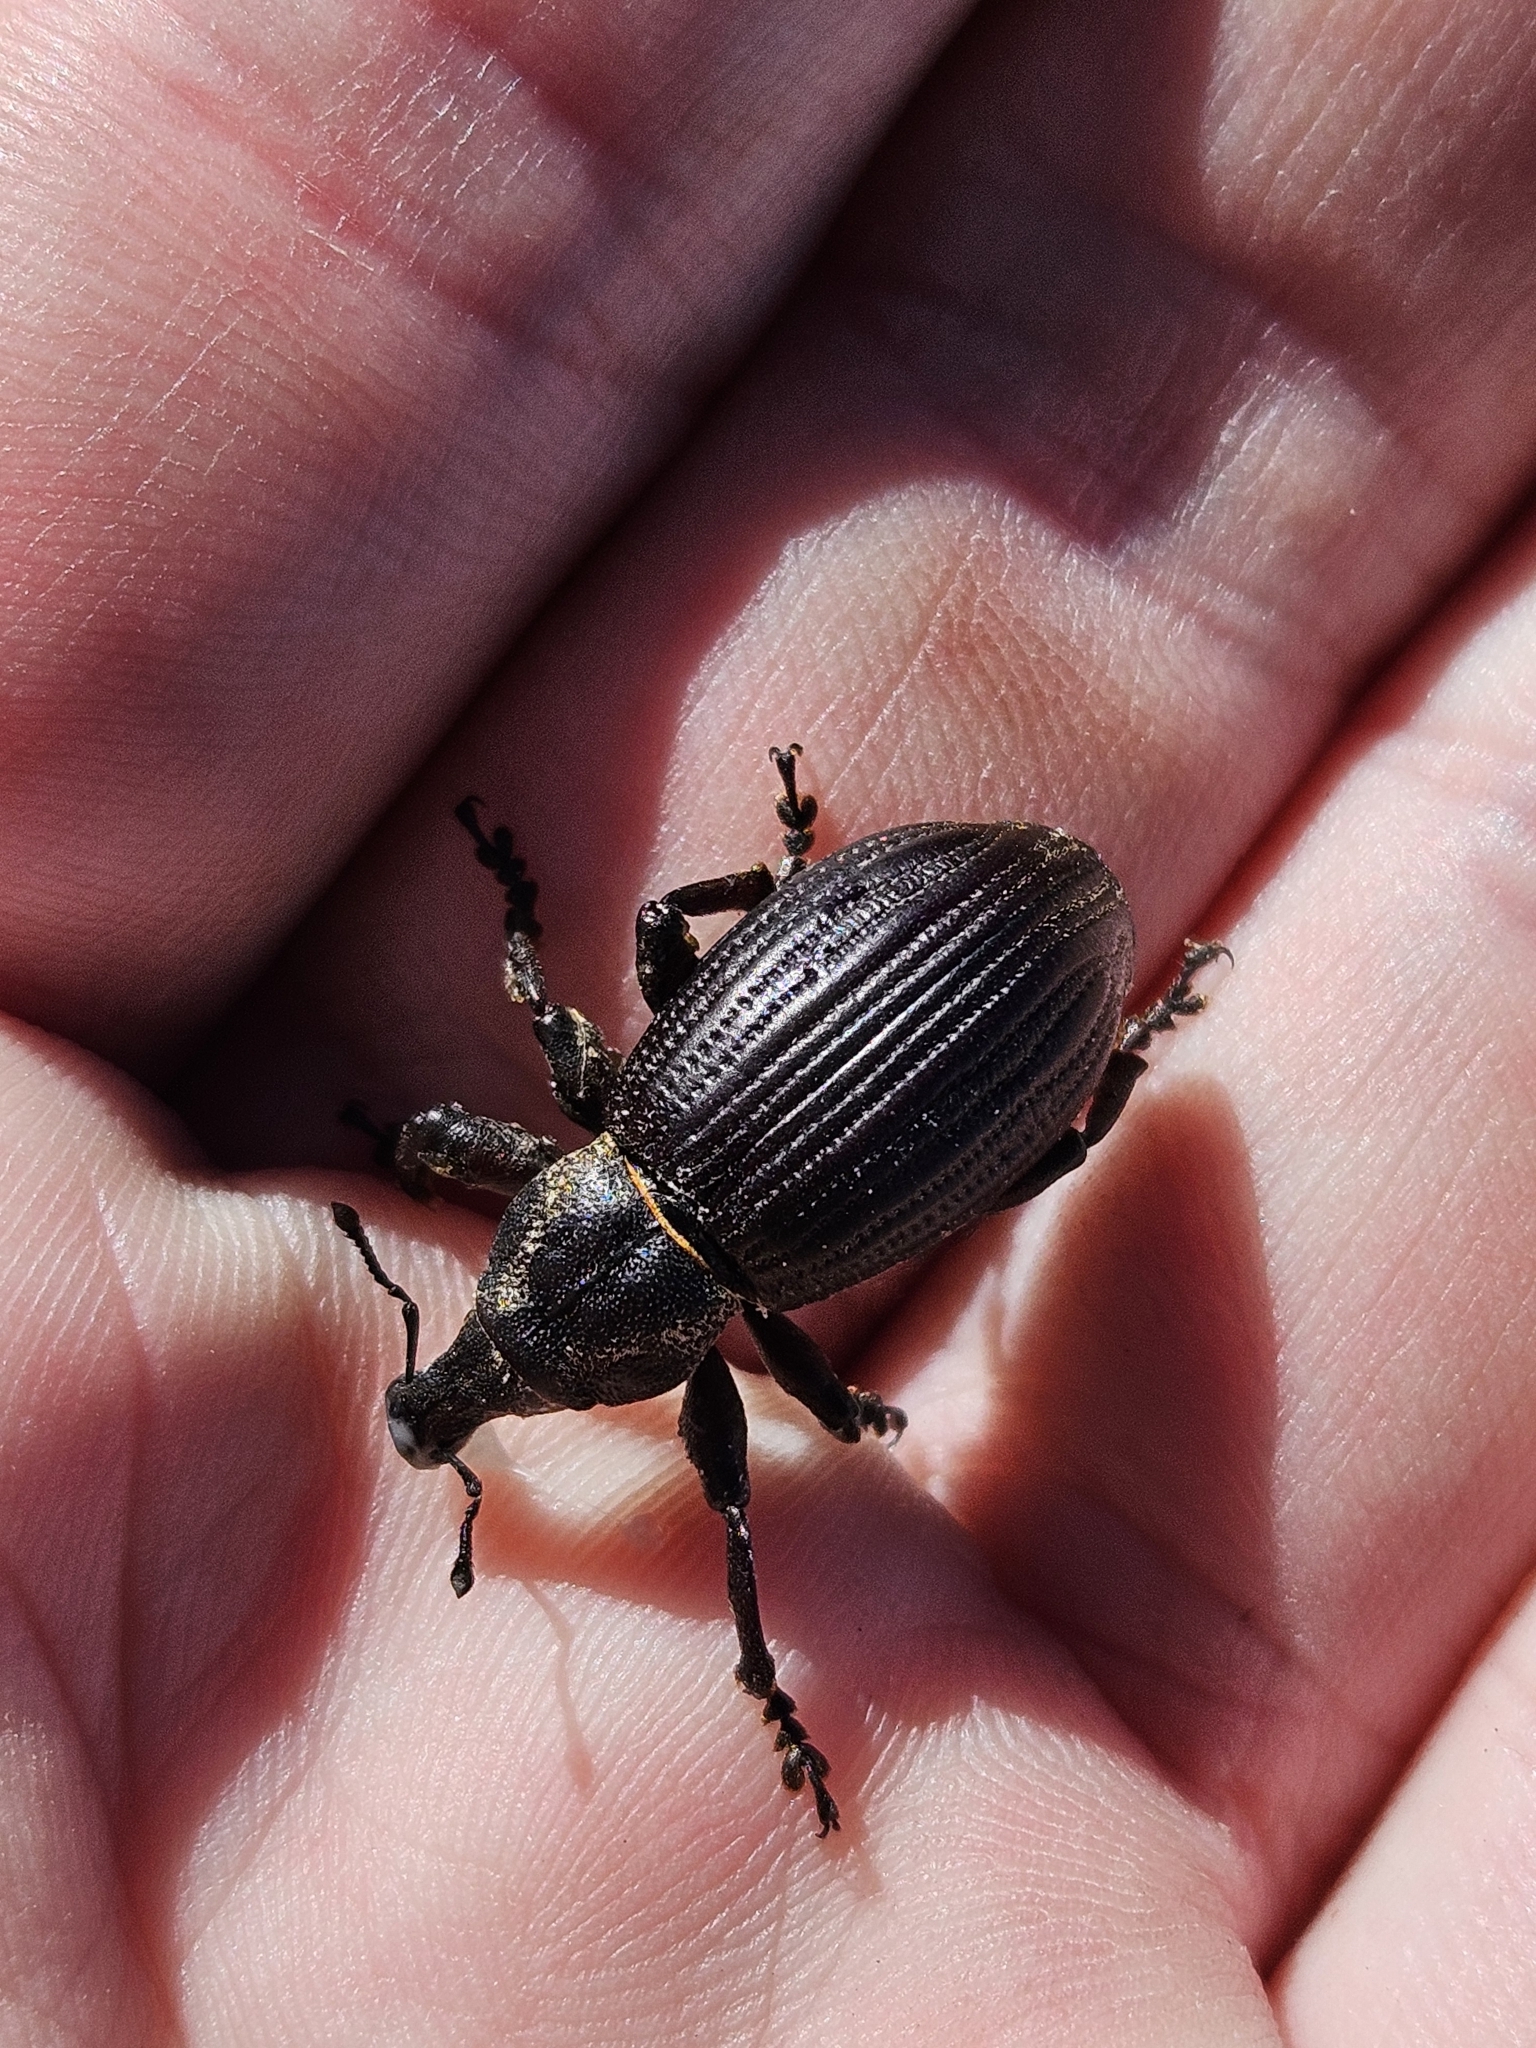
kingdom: Animalia
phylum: Arthropoda
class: Insecta
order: Coleoptera
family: Curculionidae
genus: Lyperobius
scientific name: Lyperobius huttoni
